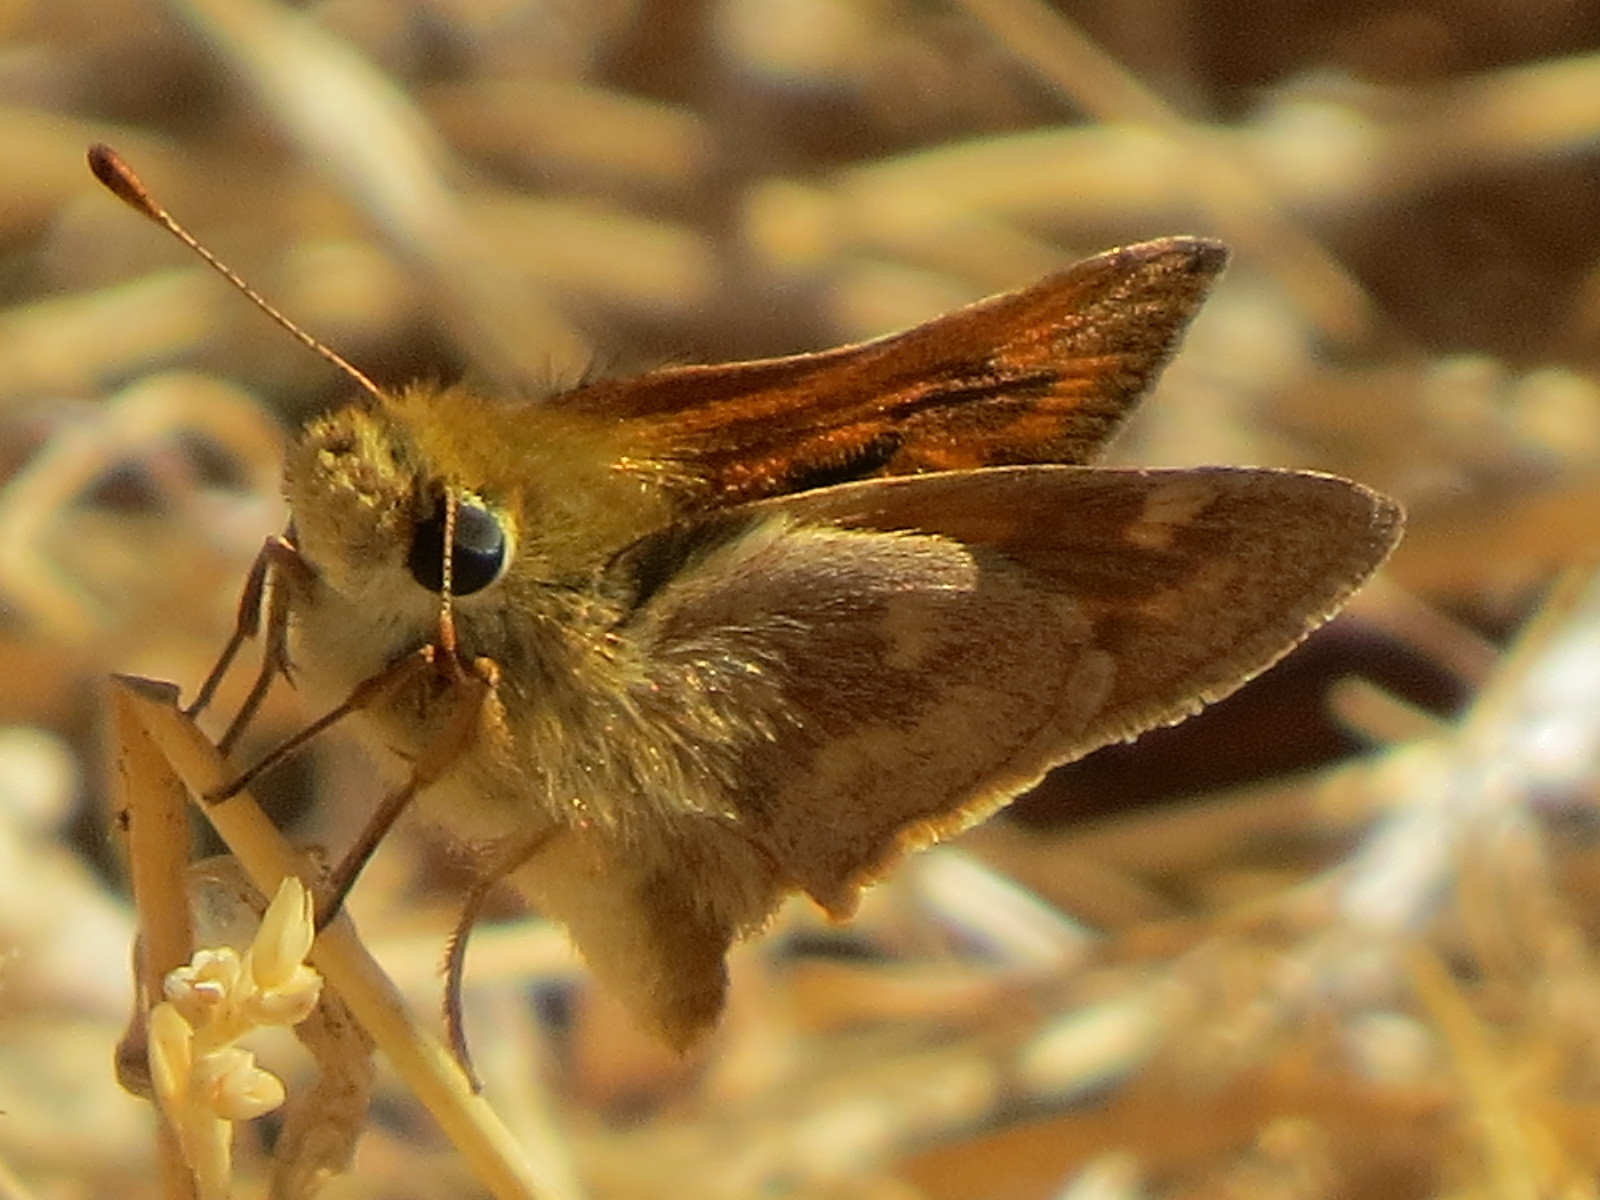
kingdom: Animalia
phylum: Arthropoda
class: Insecta
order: Lepidoptera
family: Hesperiidae
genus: Ochlodes
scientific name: Ochlodes sylvanoides
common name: Woodland skipper
